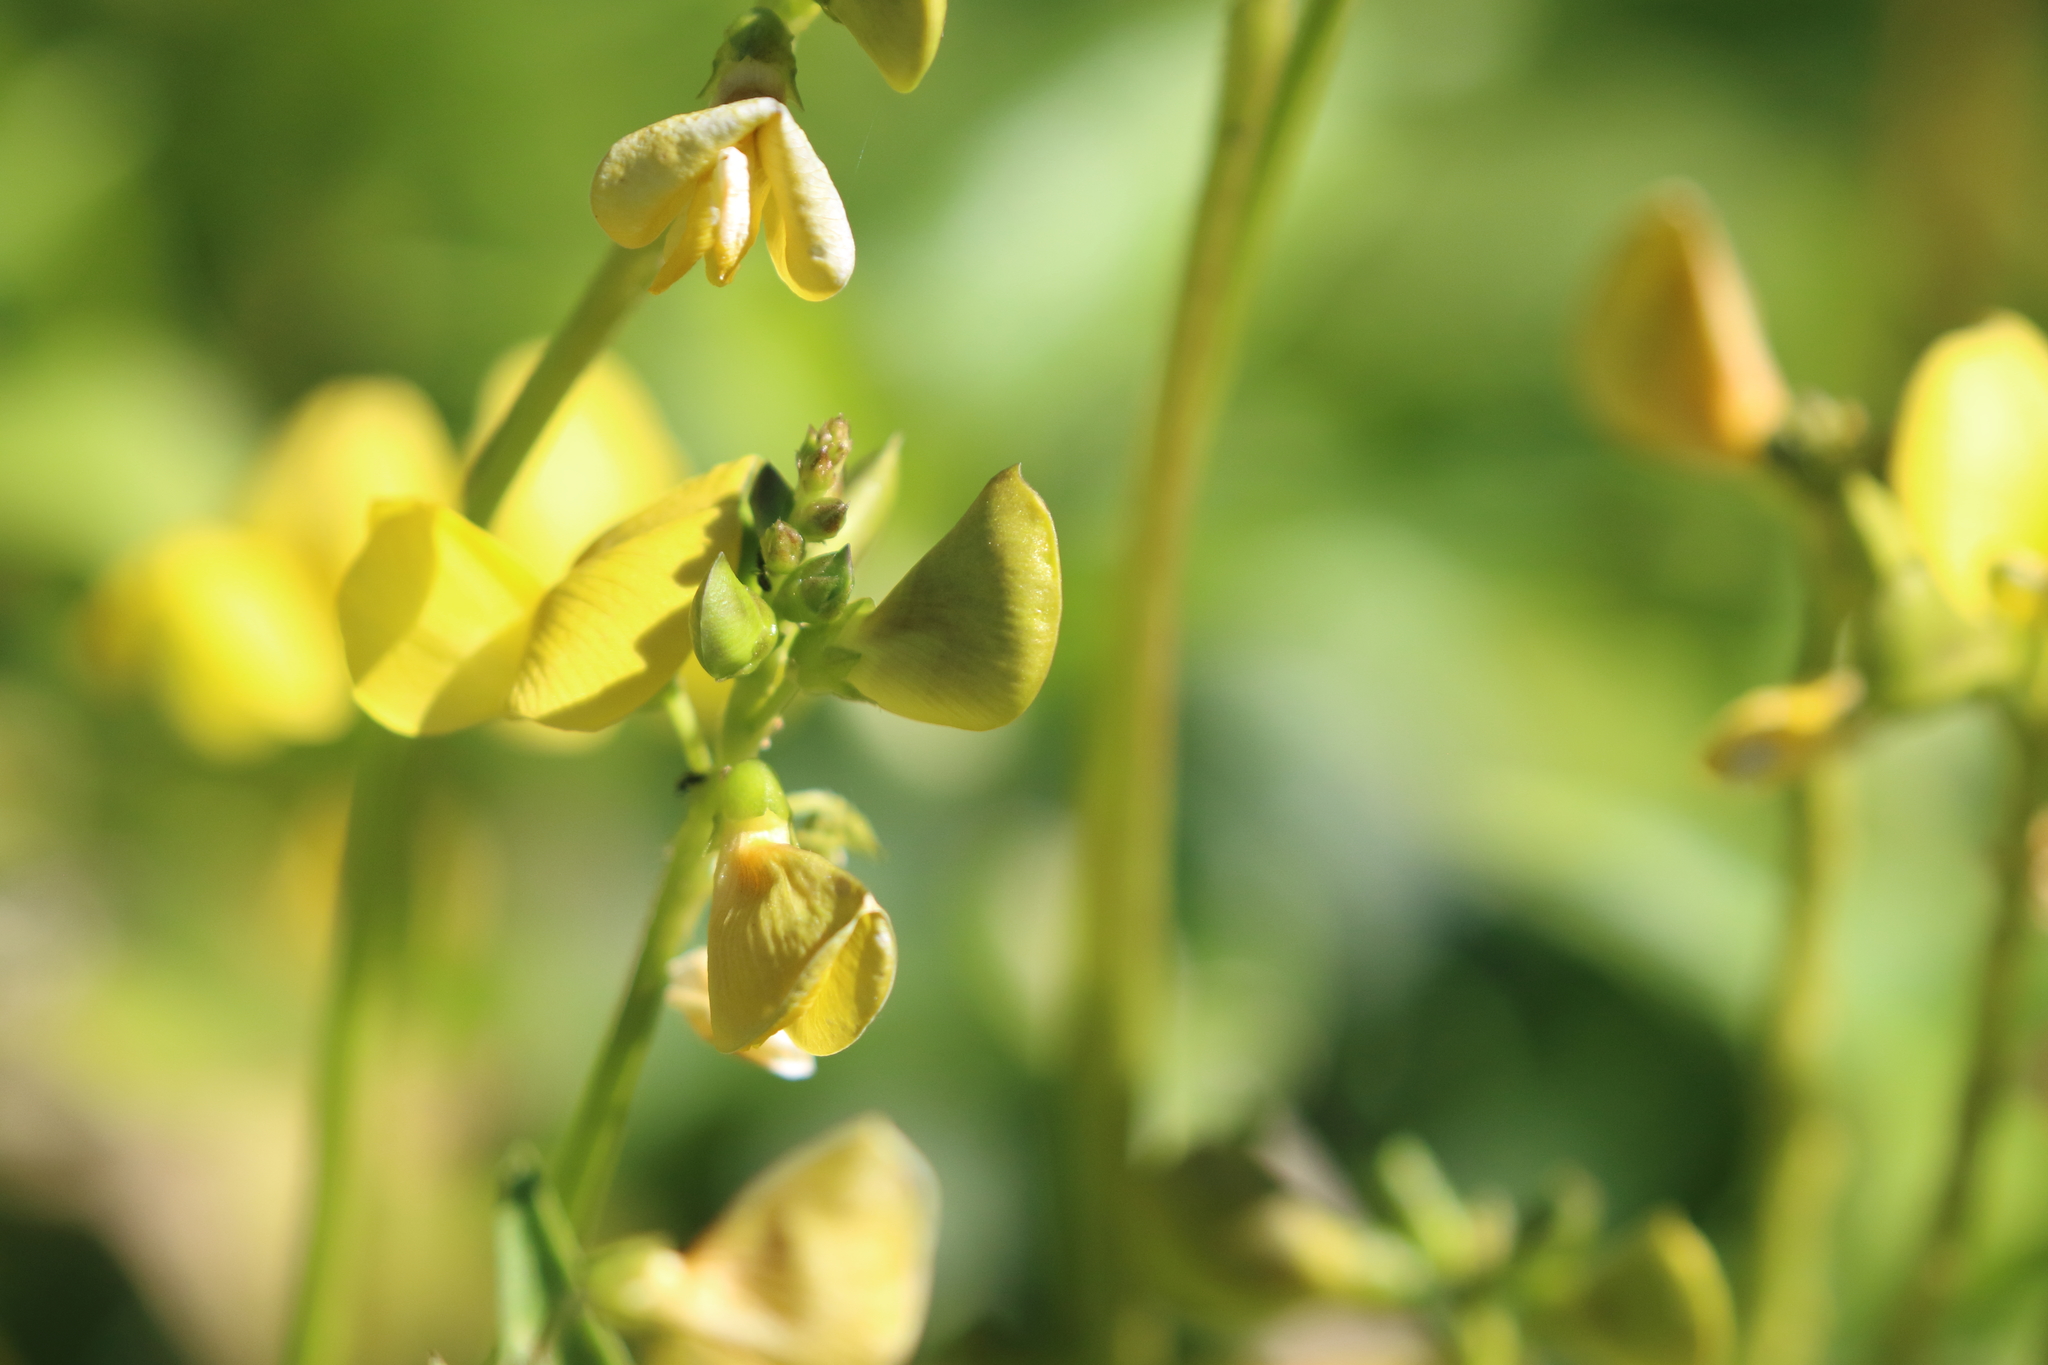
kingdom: Plantae
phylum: Tracheophyta
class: Magnoliopsida
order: Fabales
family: Fabaceae
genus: Vigna
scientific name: Vigna luteola
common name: Hairypod cowpea
